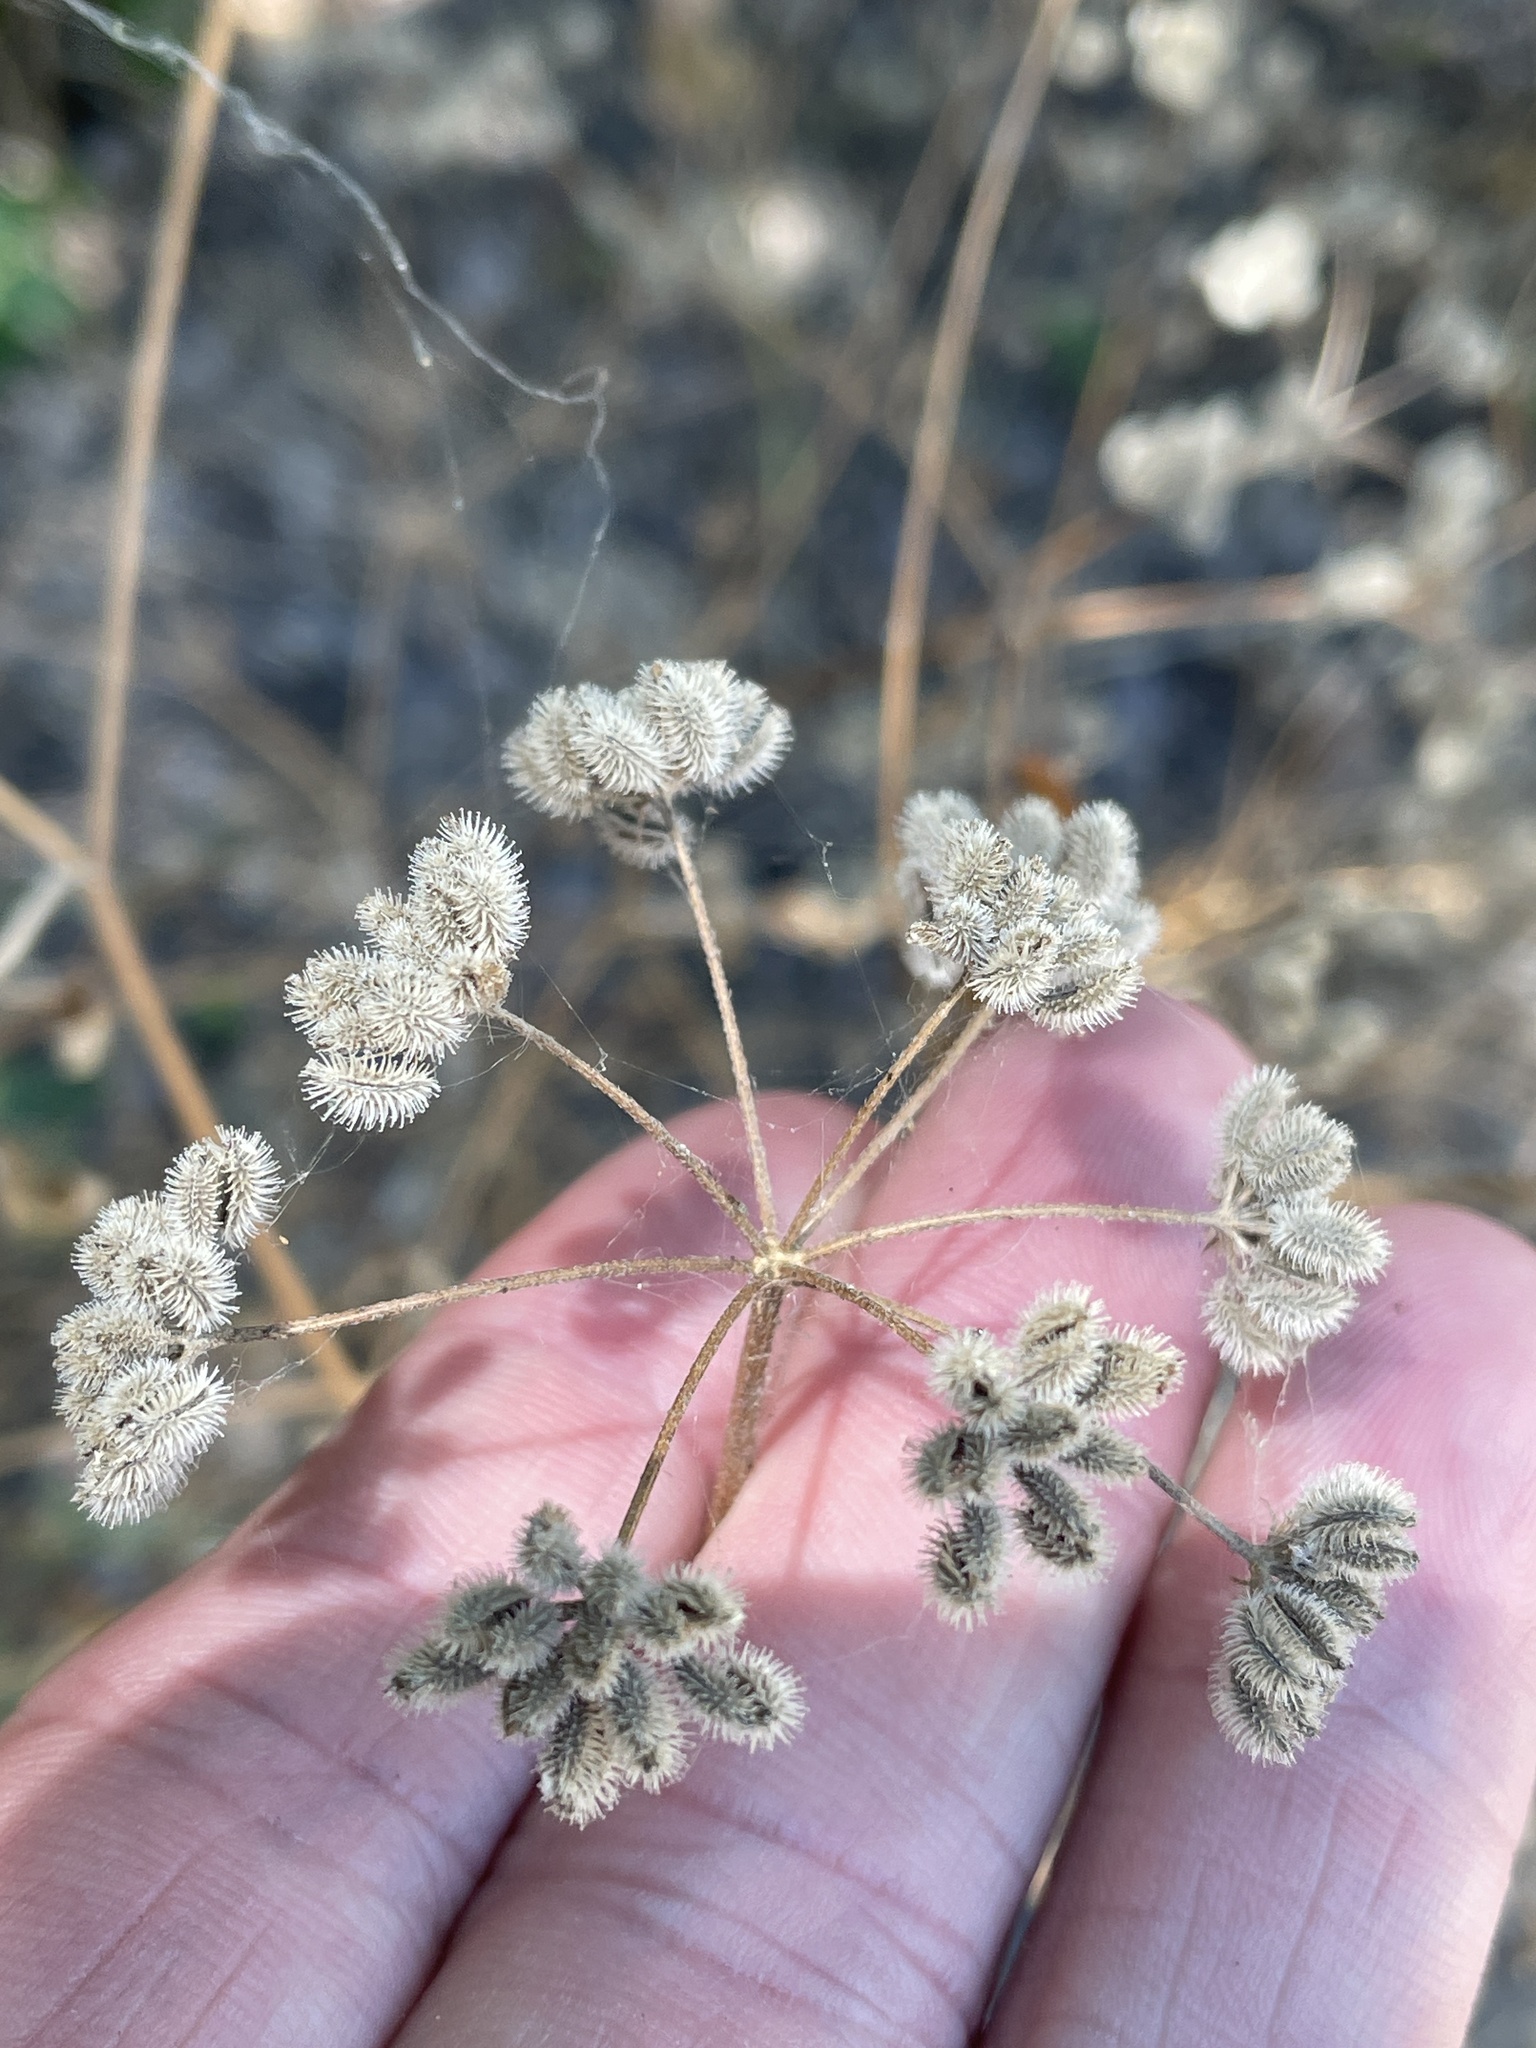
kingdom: Plantae
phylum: Tracheophyta
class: Magnoliopsida
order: Apiales
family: Apiaceae
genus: Torilis
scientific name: Torilis arvensis
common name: Spreading hedge-parsley
